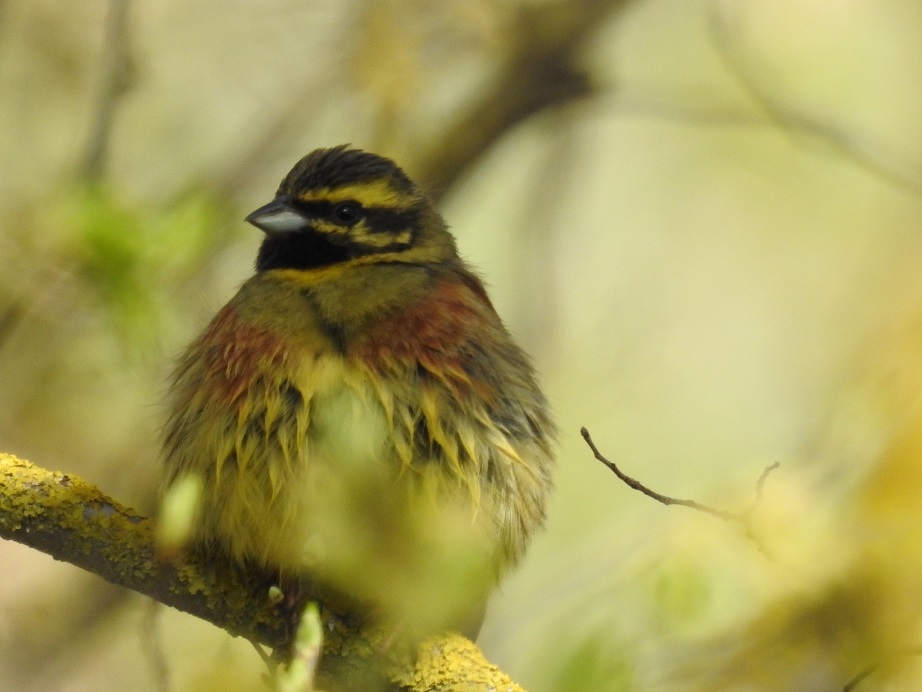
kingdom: Animalia
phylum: Chordata
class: Aves
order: Passeriformes
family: Emberizidae
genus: Emberiza
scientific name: Emberiza cirlus
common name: Cirl bunting
